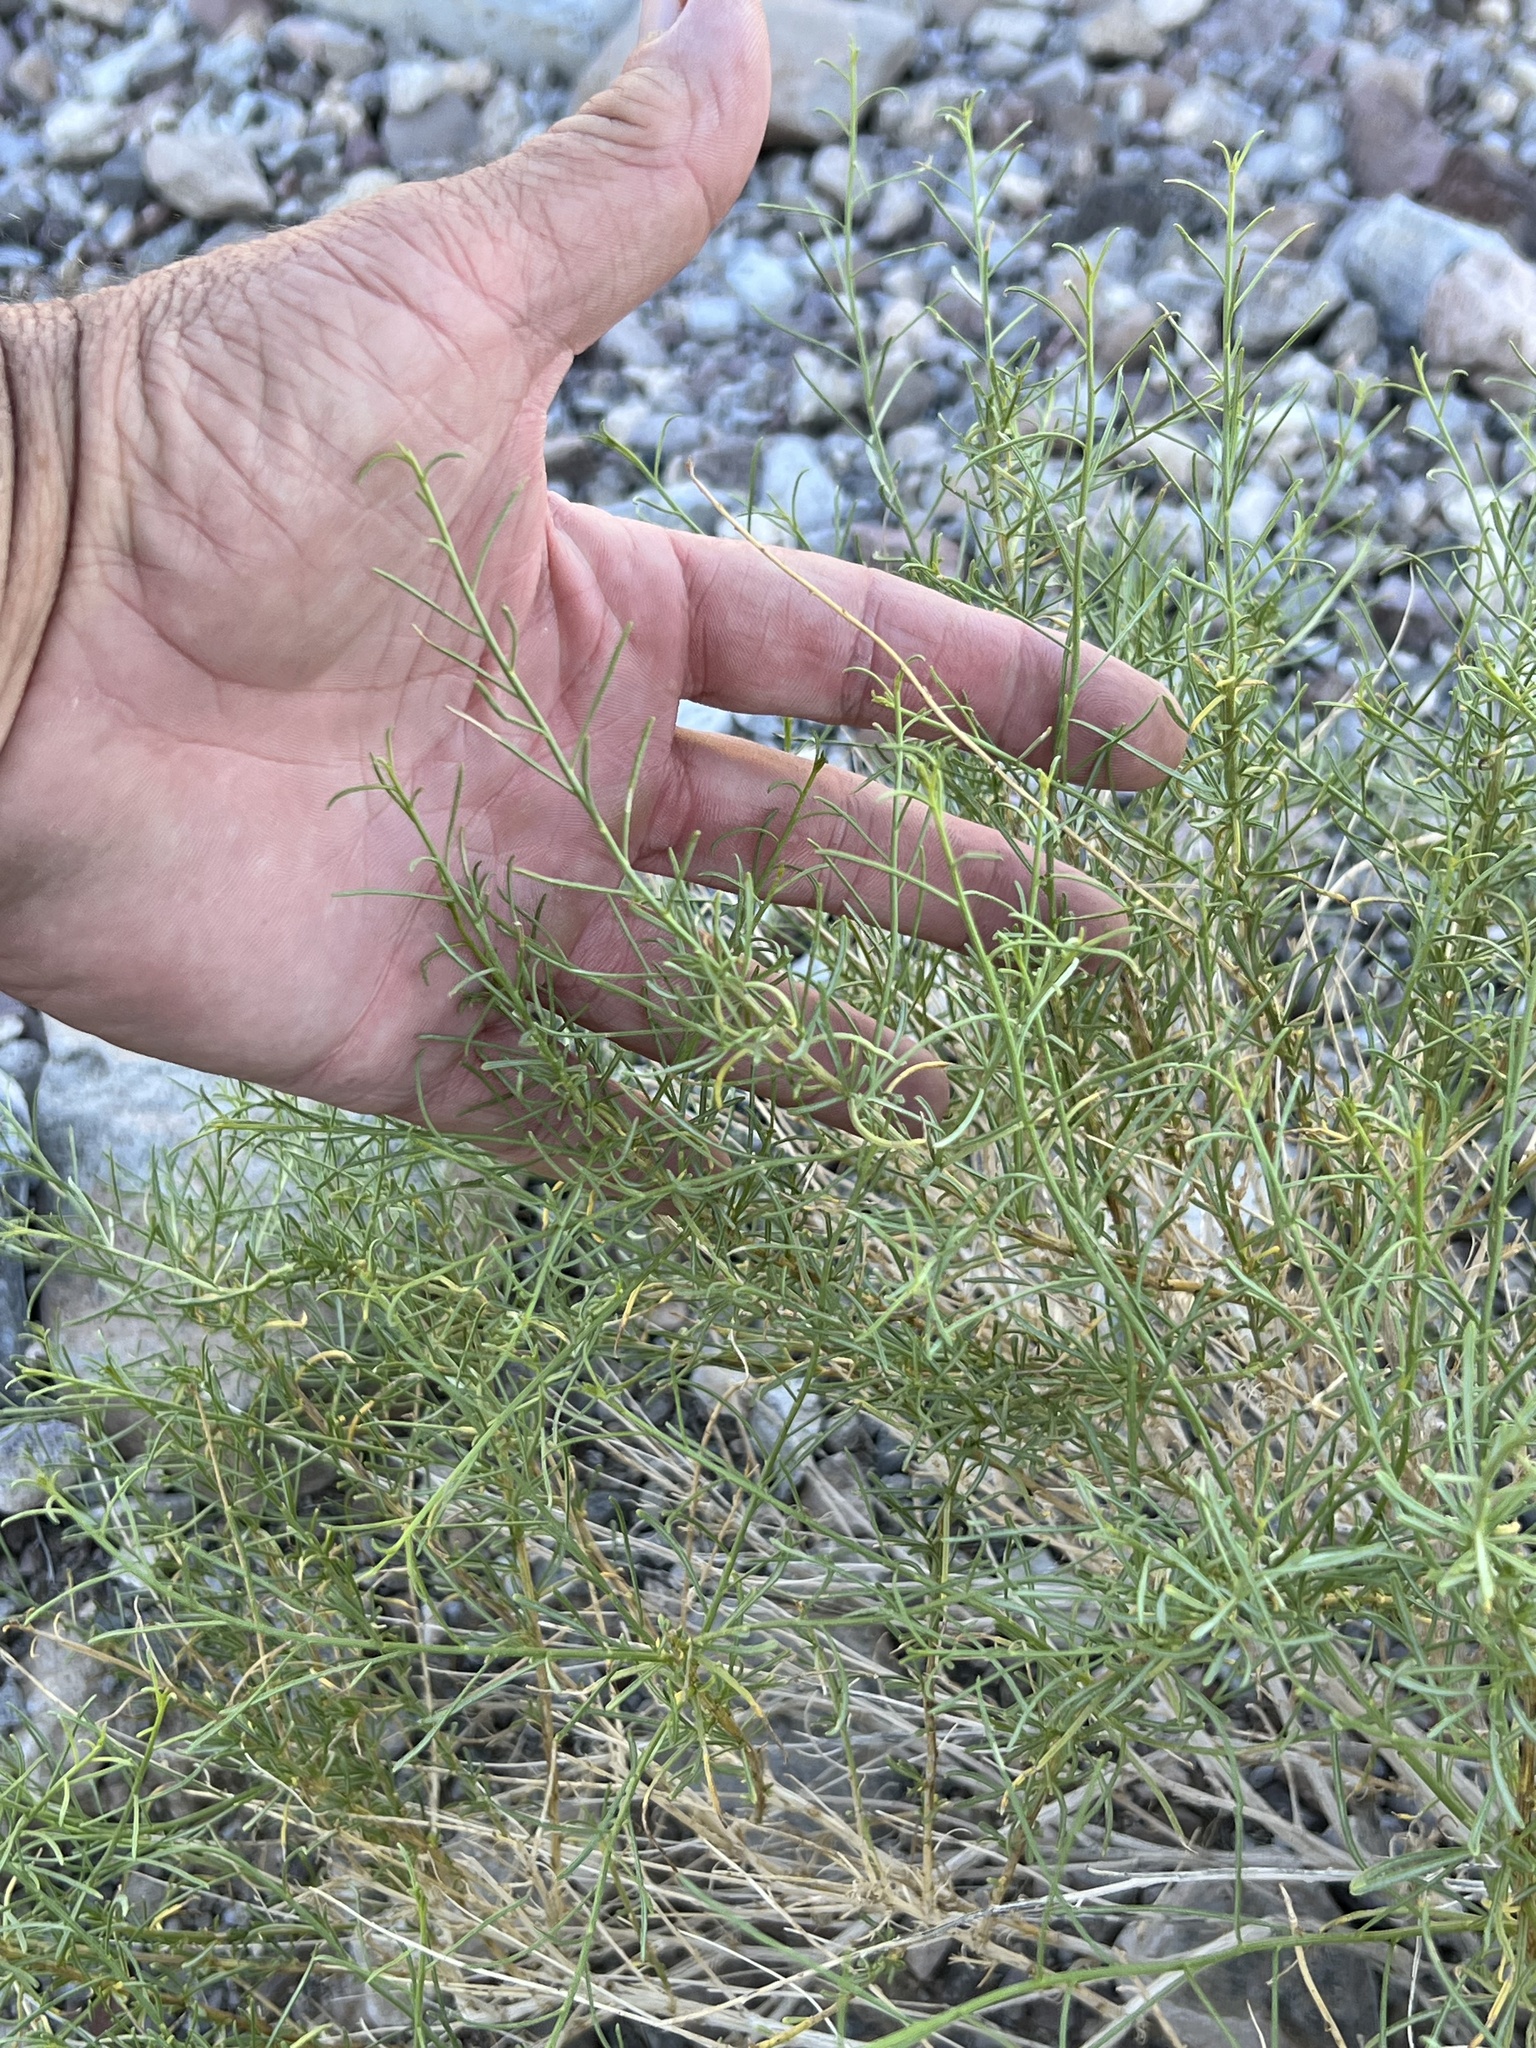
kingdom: Plantae
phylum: Tracheophyta
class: Magnoliopsida
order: Asterales
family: Asteraceae
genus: Ambrosia
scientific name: Ambrosia salsola
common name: Burrobrush
